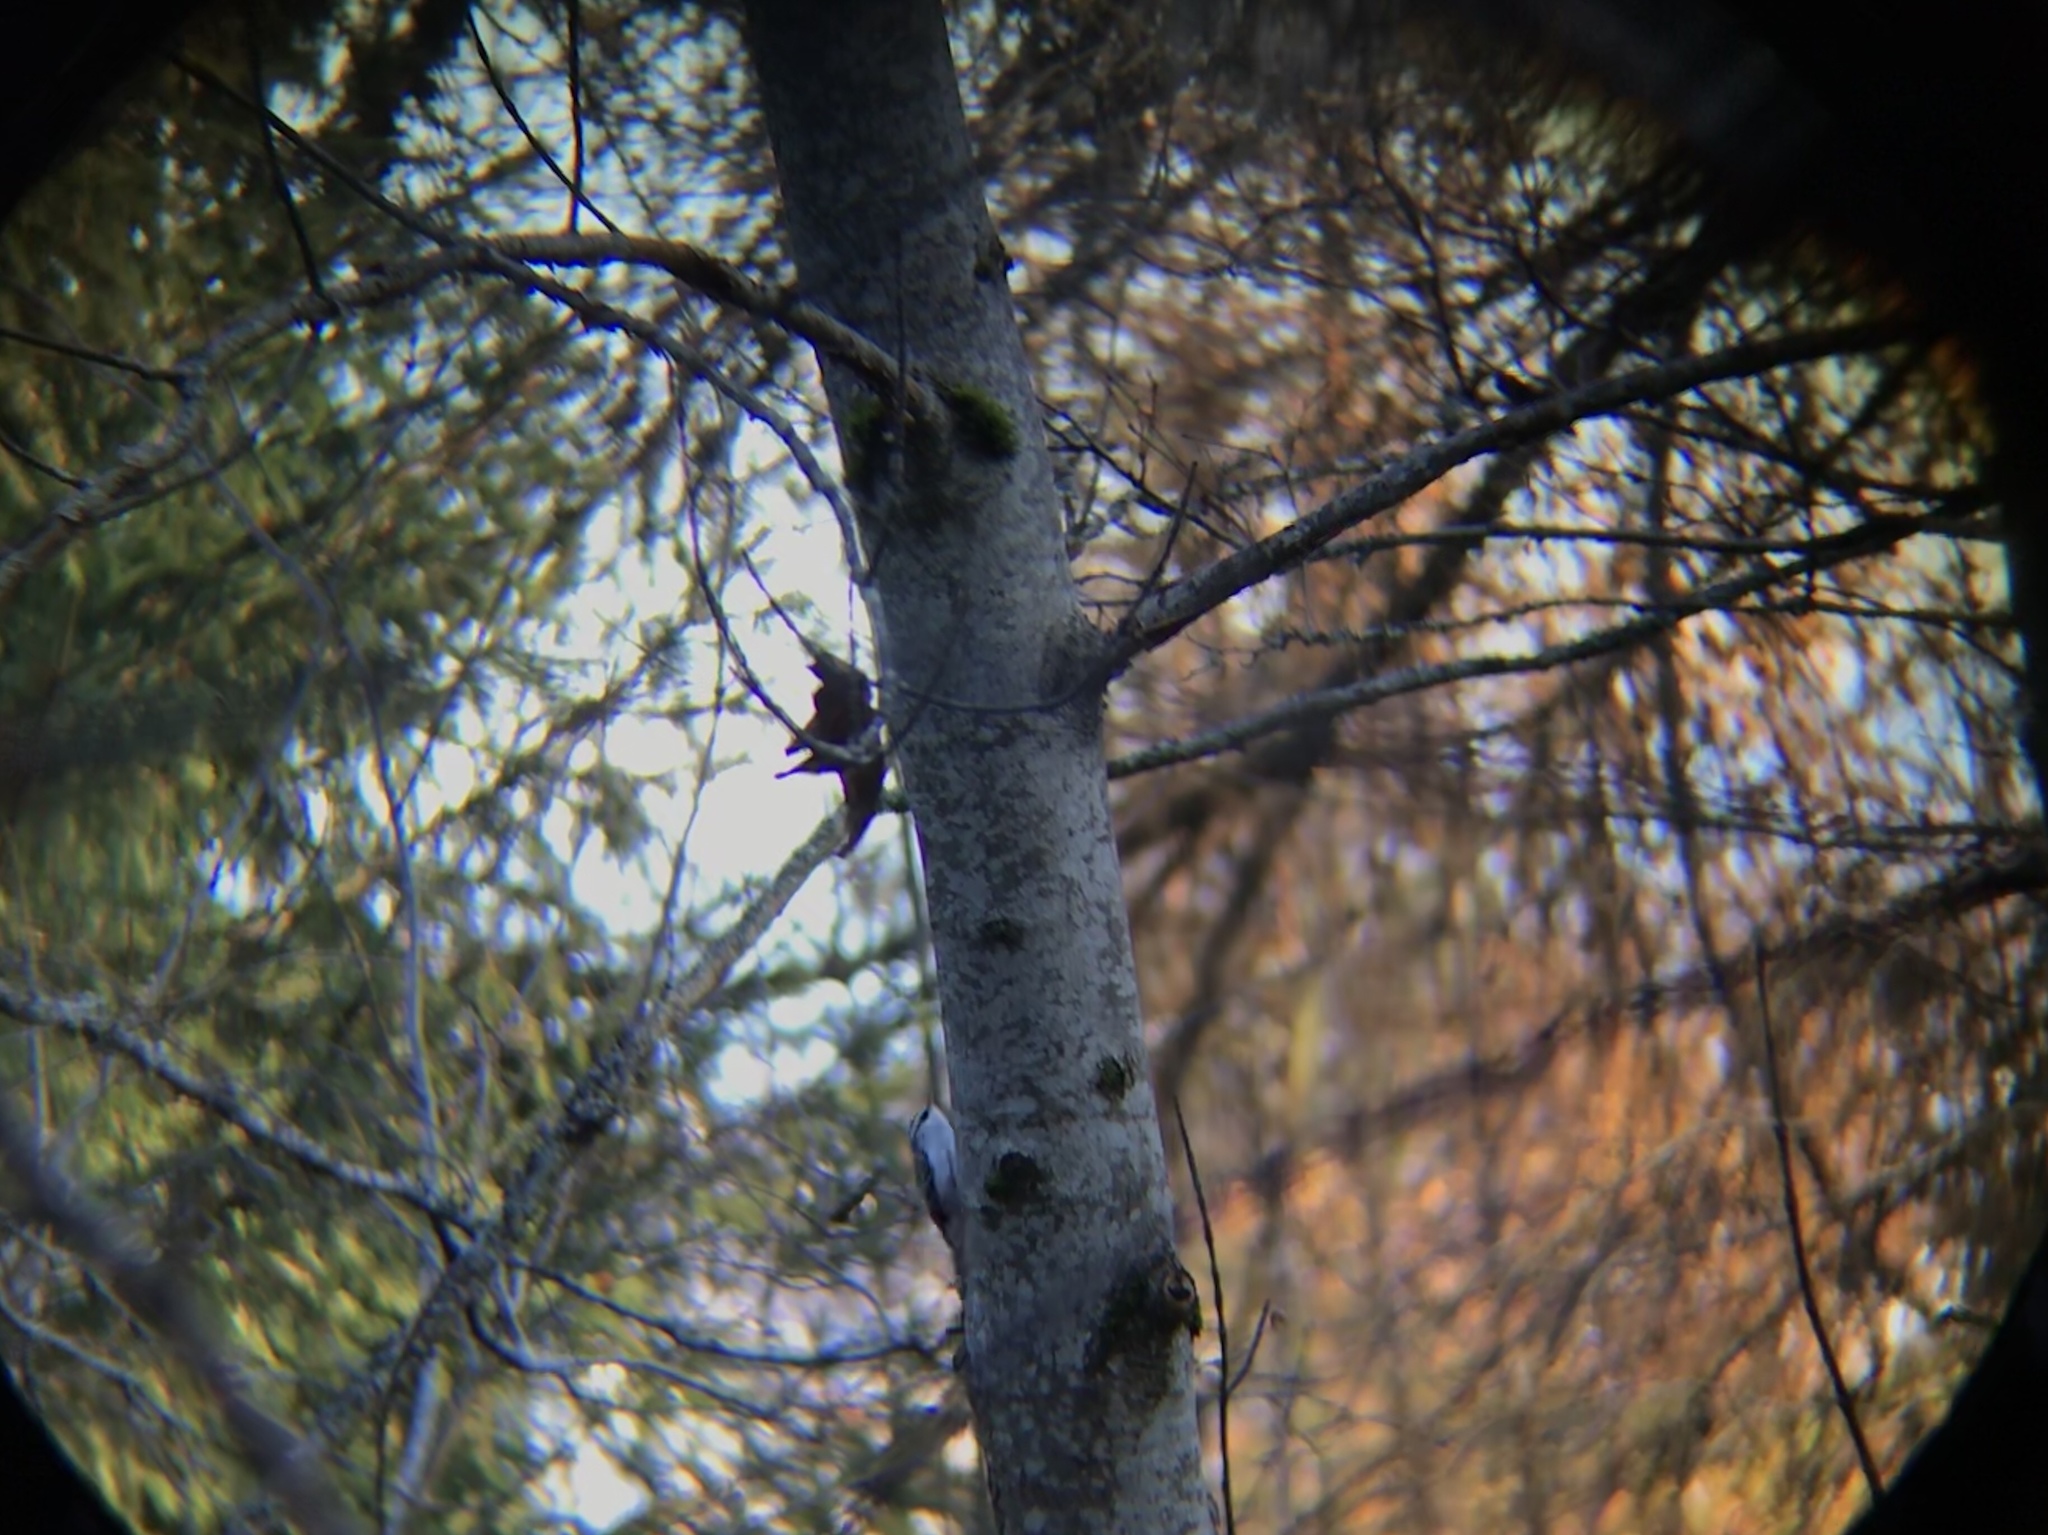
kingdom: Animalia
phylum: Chordata
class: Aves
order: Passeriformes
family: Certhiidae
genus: Certhia
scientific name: Certhia familiaris
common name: Eurasian treecreeper
